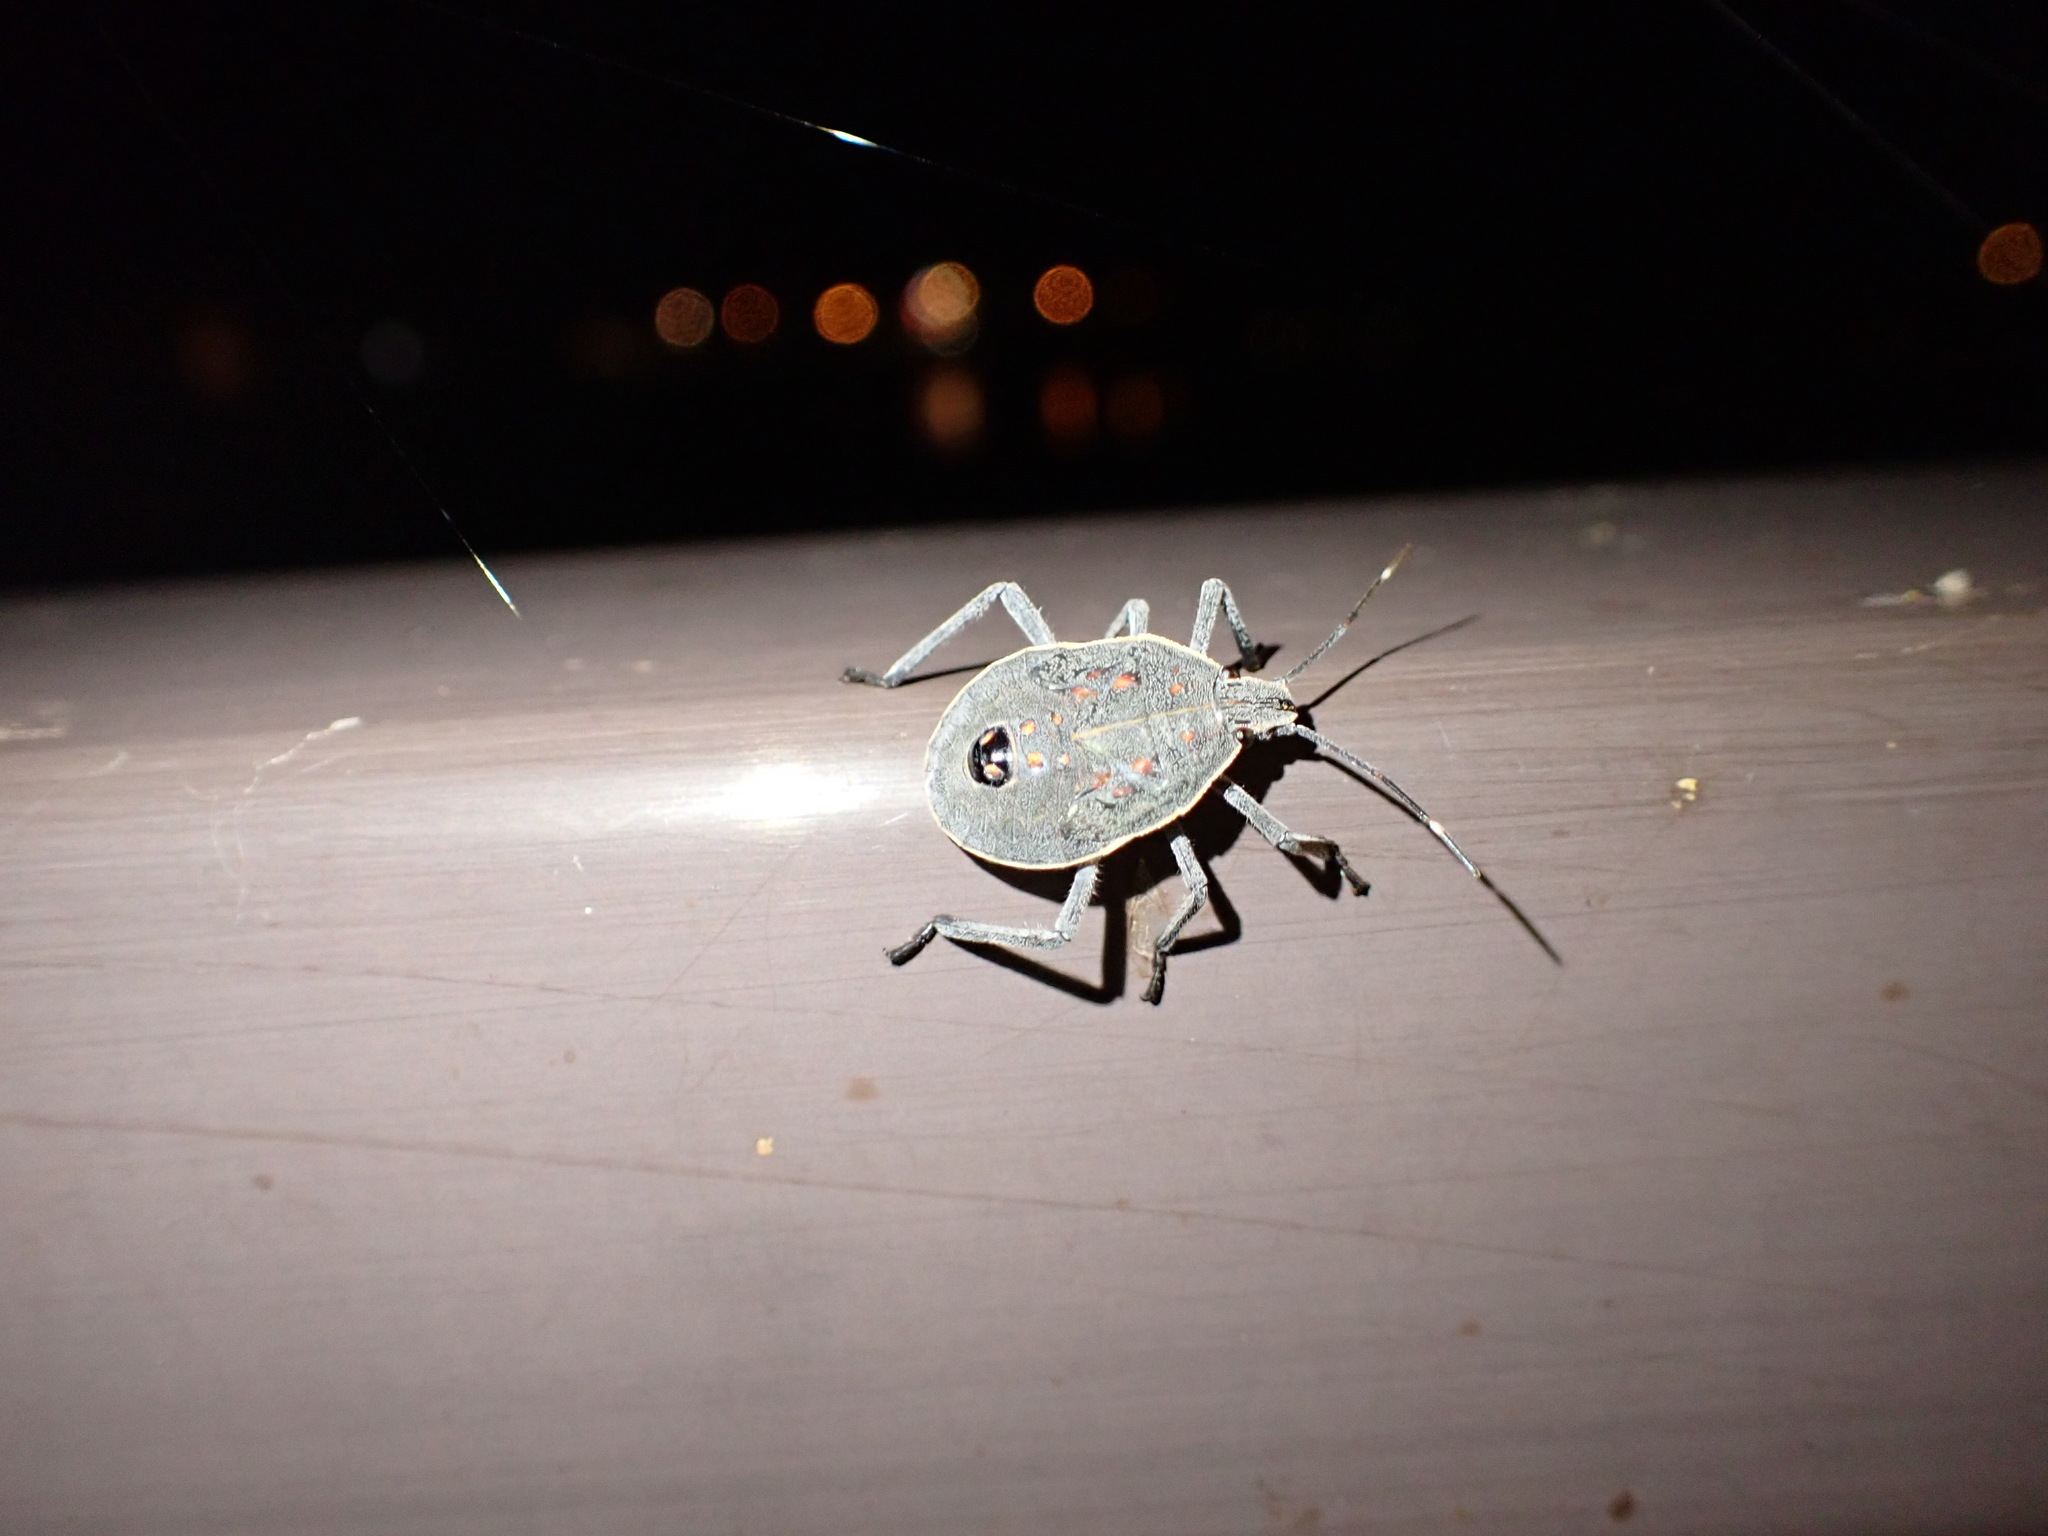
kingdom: Animalia
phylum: Arthropoda
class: Insecta
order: Hemiptera
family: Pentatomidae
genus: Erthesina
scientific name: Erthesina fullo
